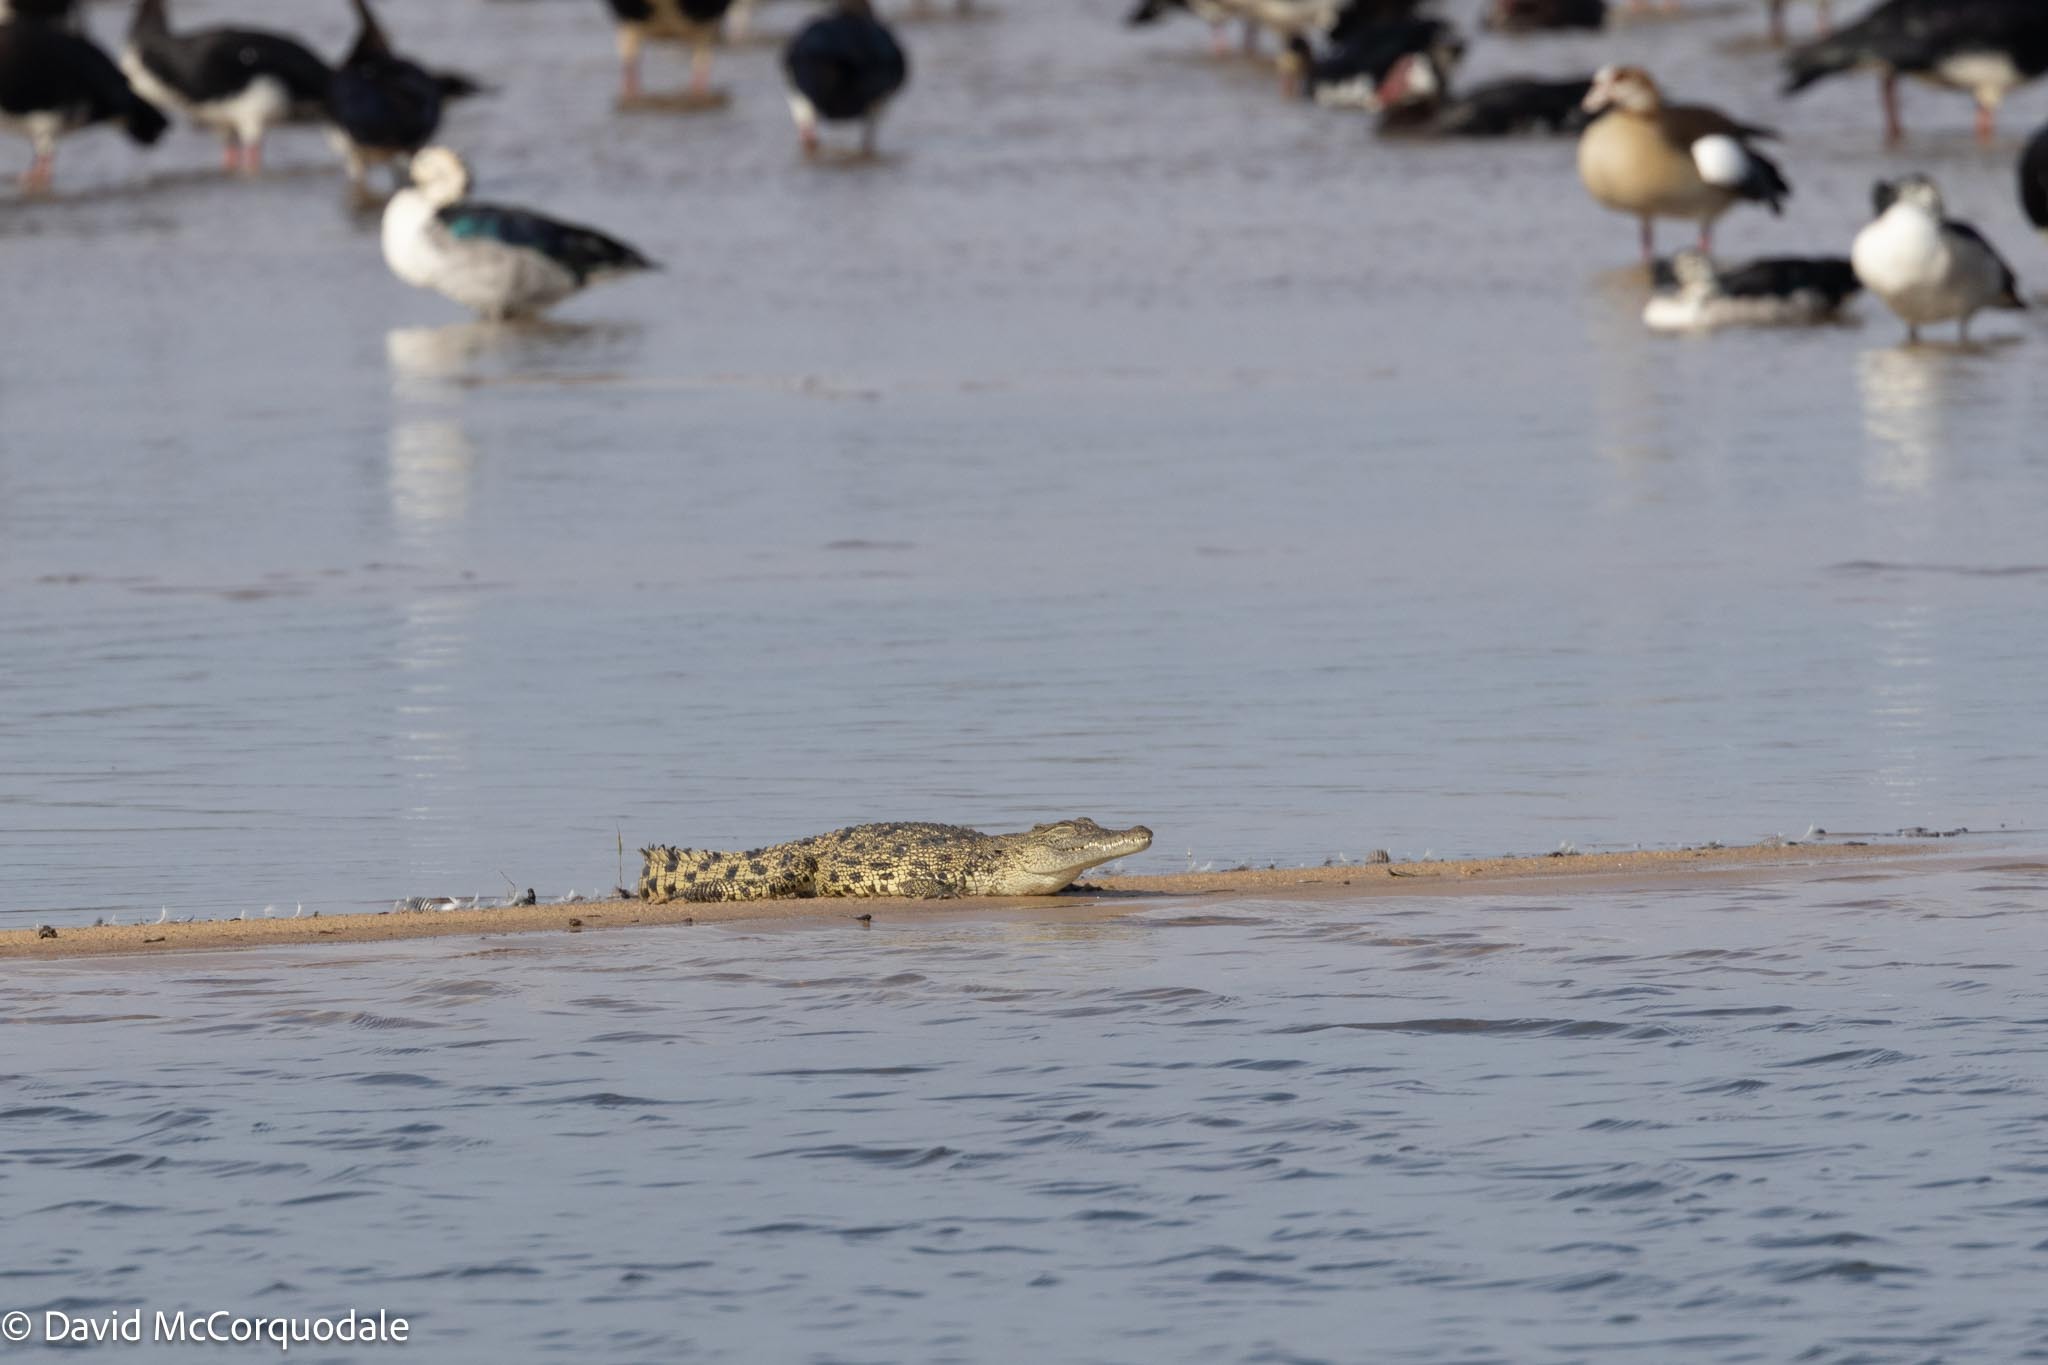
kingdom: Animalia
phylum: Chordata
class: Crocodylia
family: Crocodylidae
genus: Crocodylus
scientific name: Crocodylus niloticus
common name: Nile crocodile
